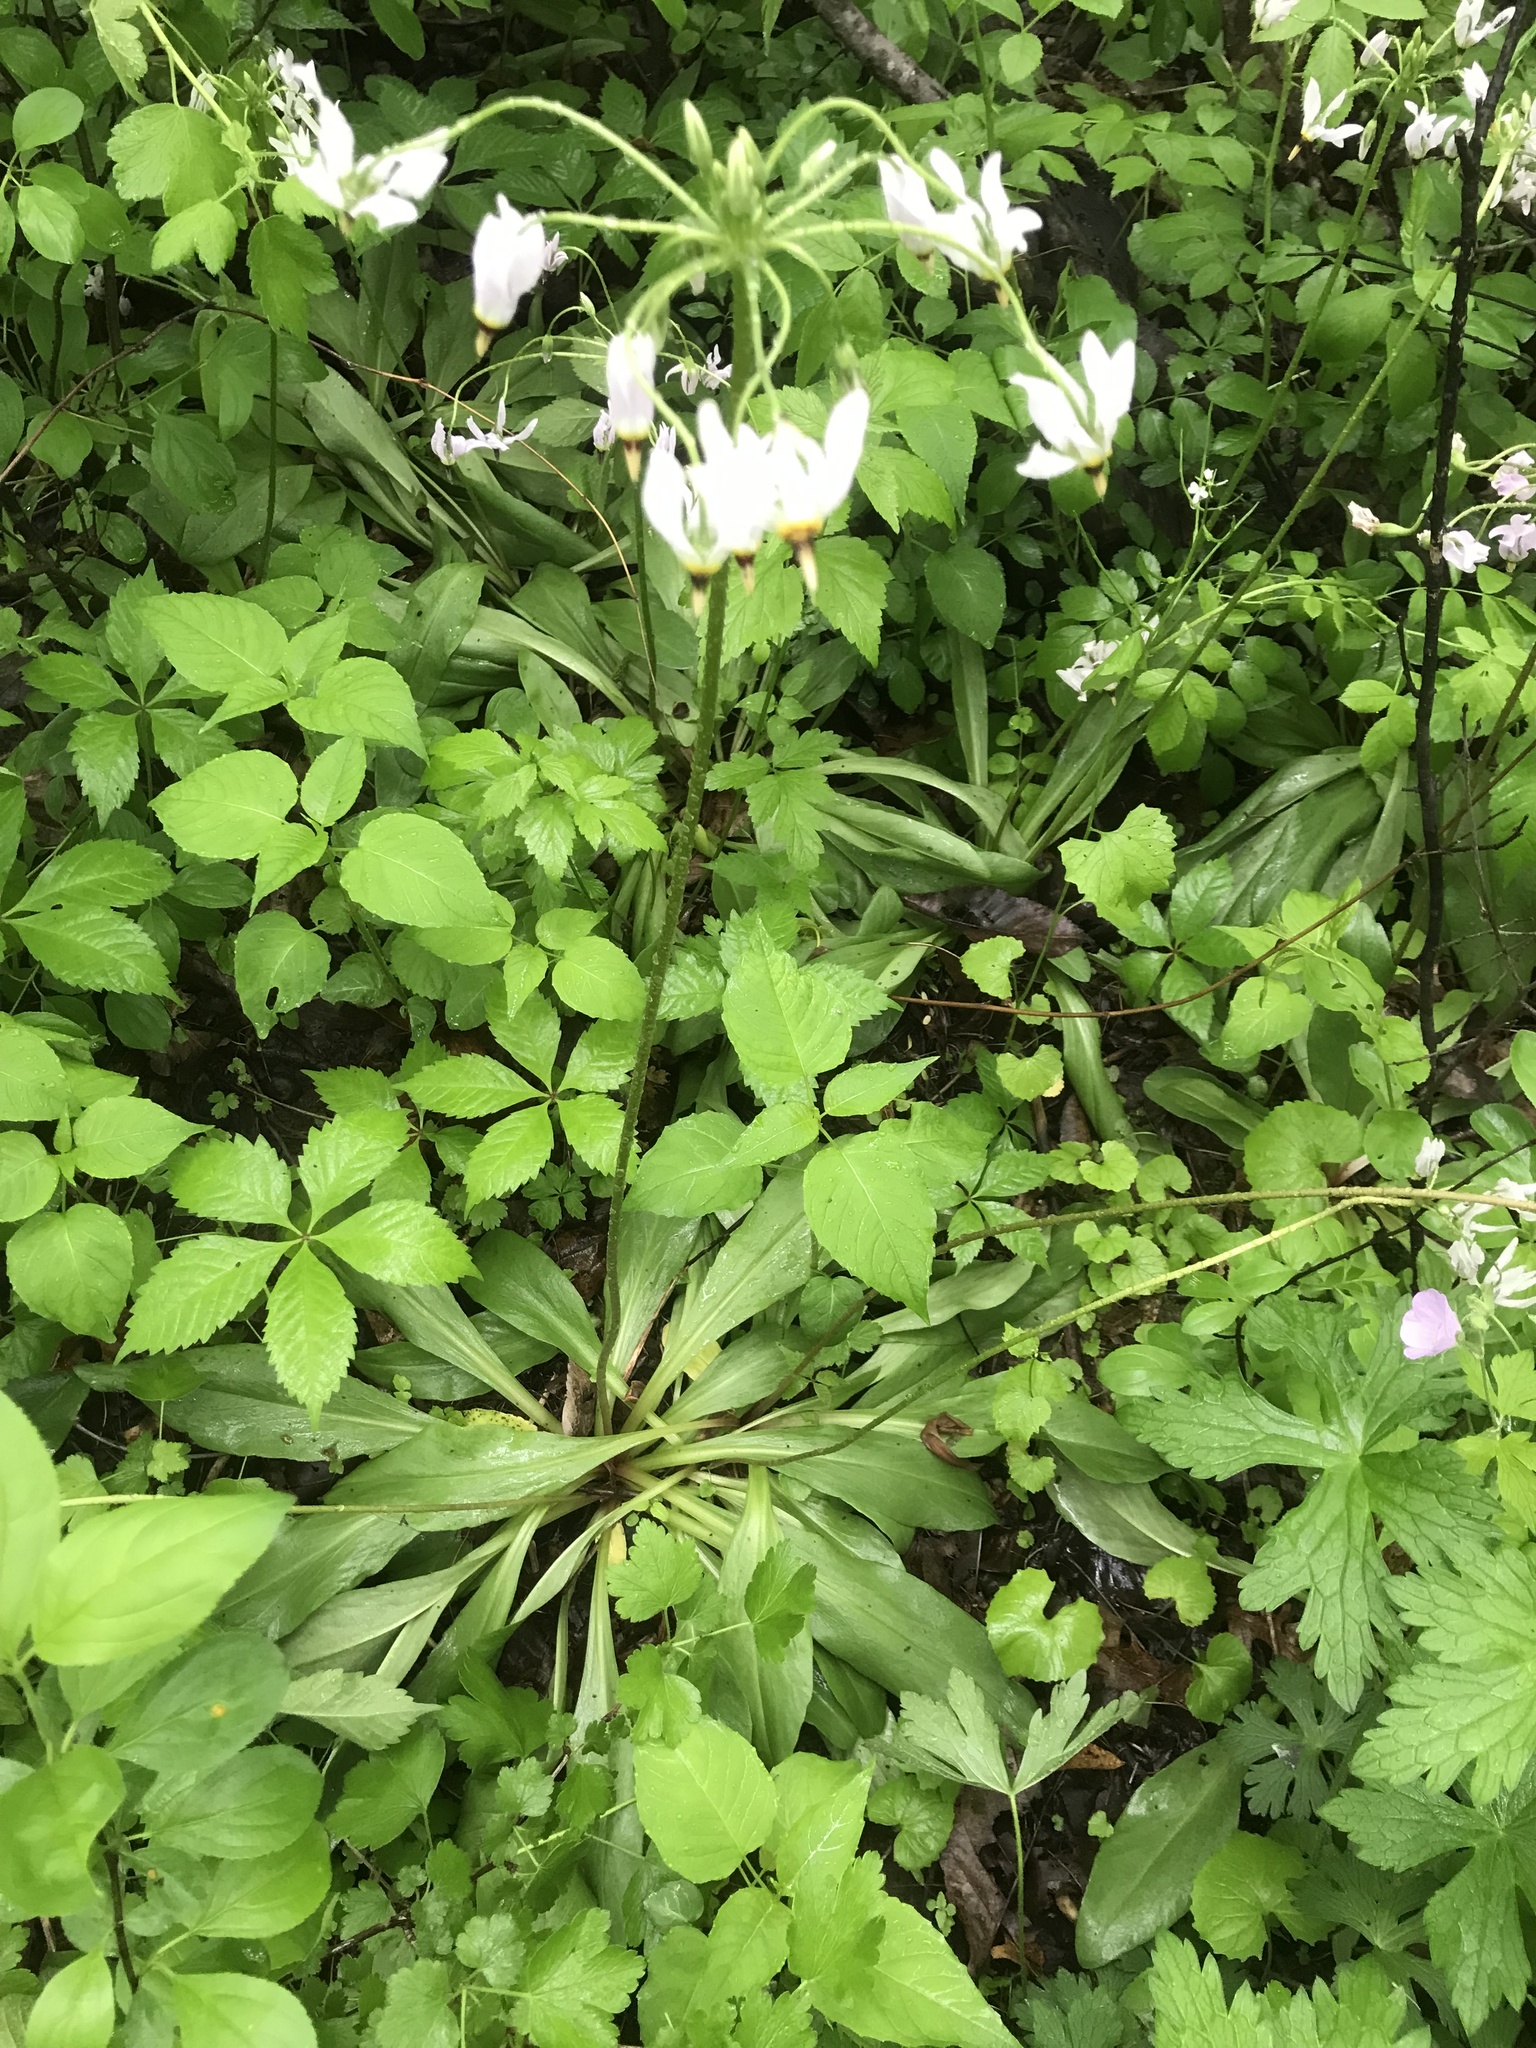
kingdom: Plantae
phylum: Tracheophyta
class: Magnoliopsida
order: Ericales
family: Primulaceae
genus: Dodecatheon
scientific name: Dodecatheon meadia
